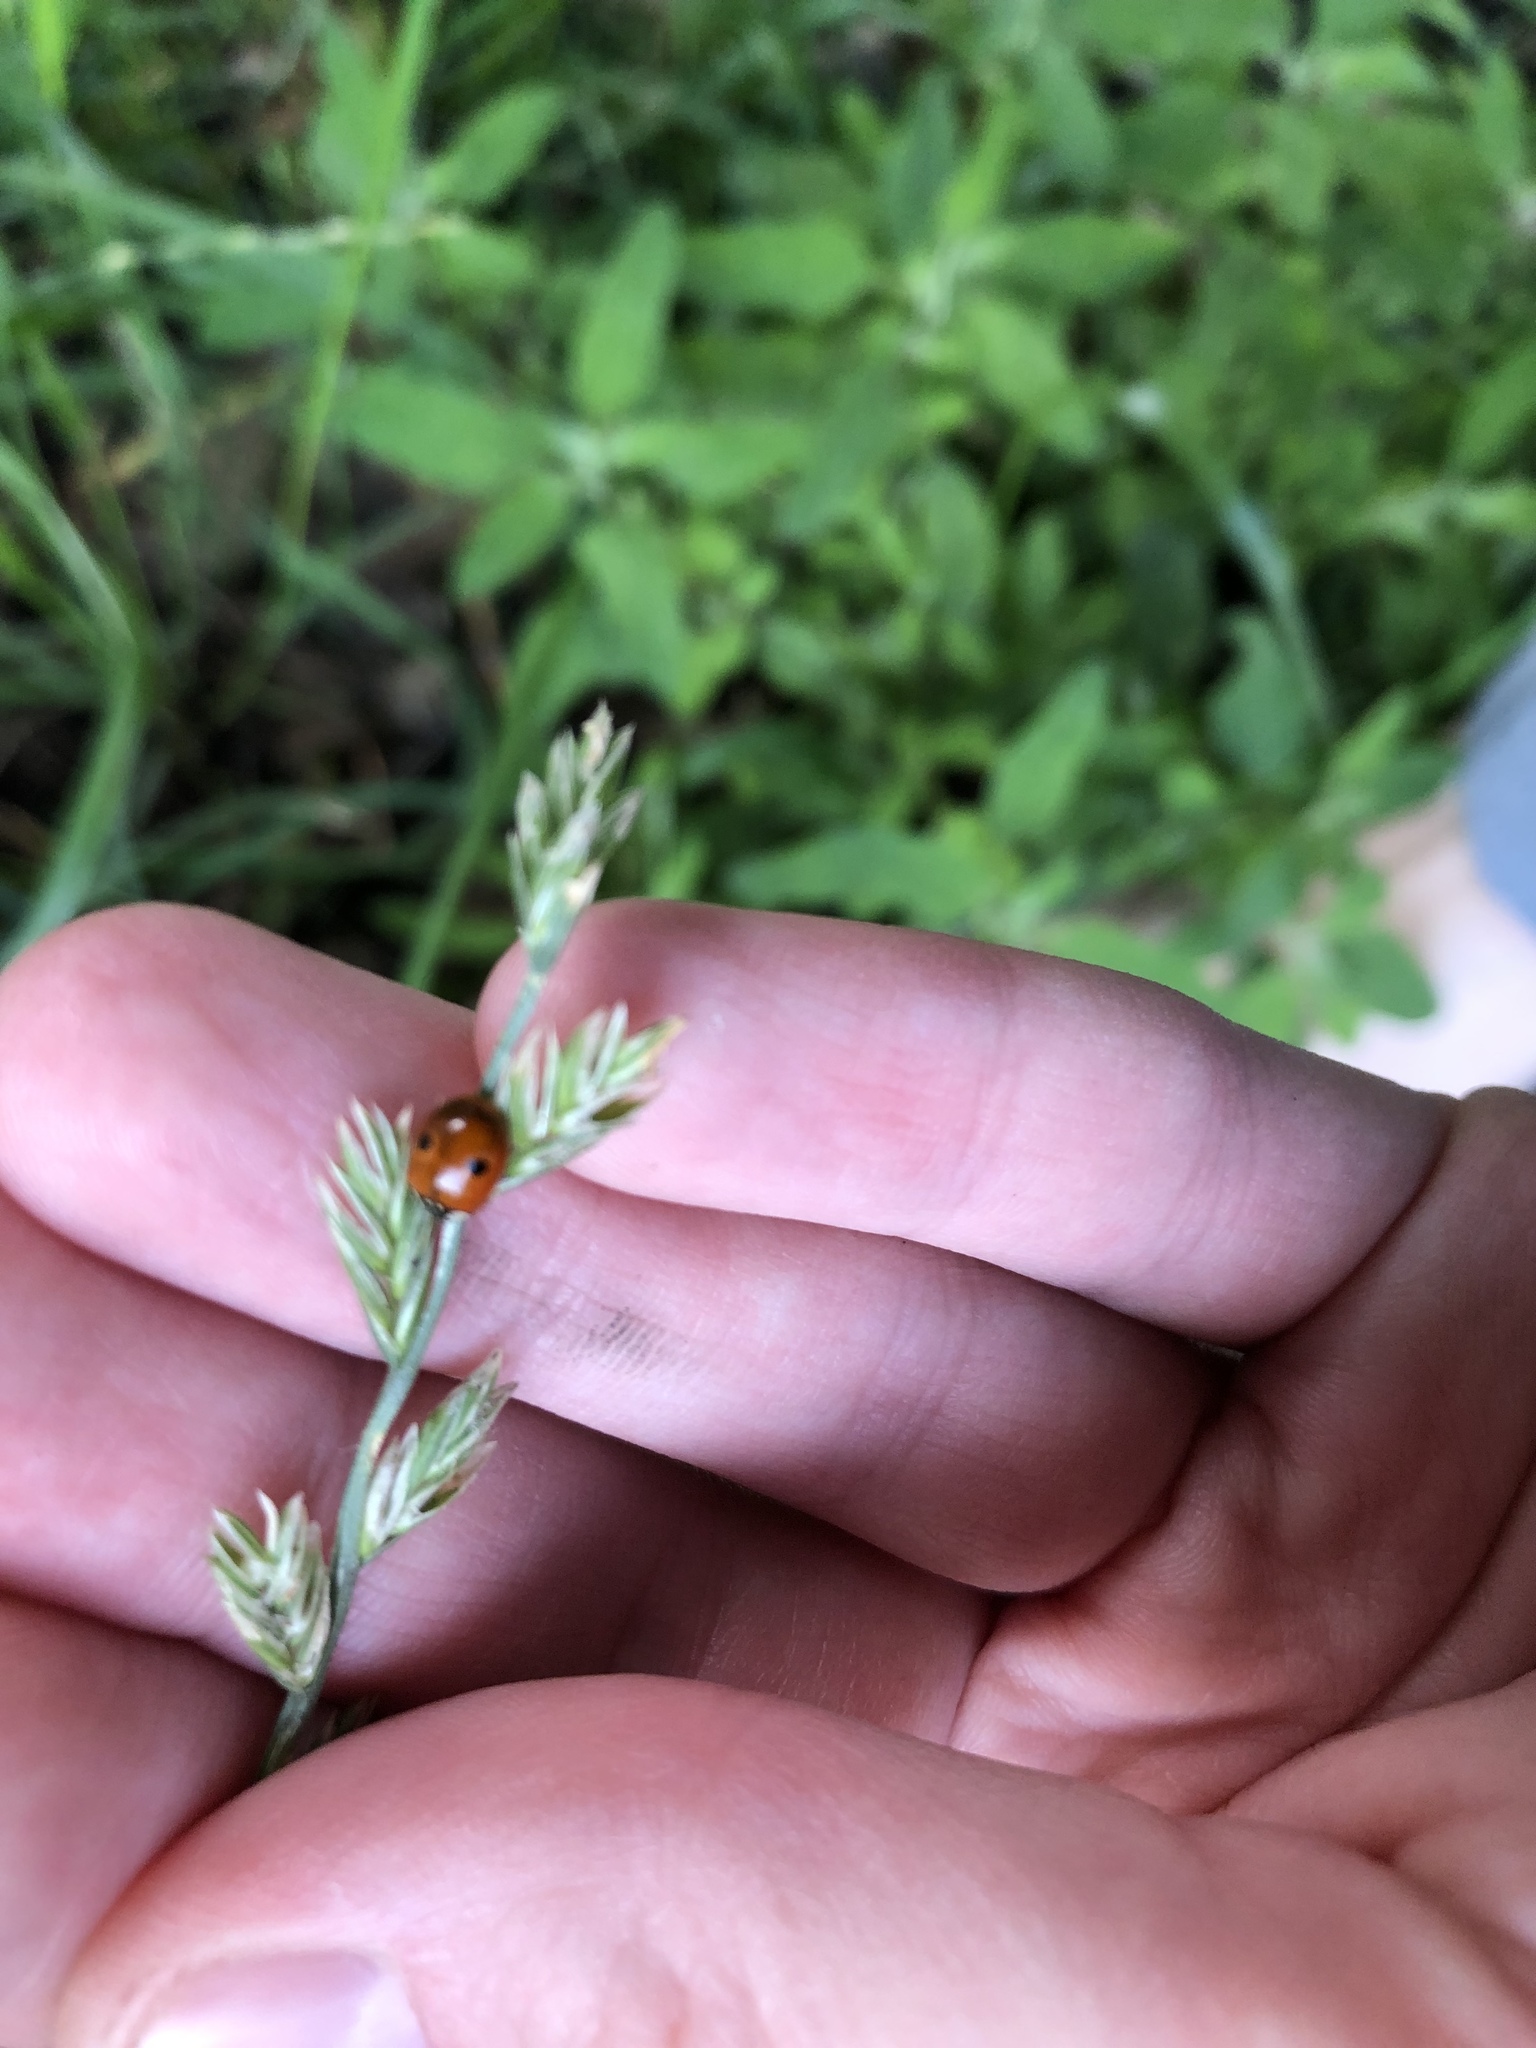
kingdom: Animalia
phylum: Arthropoda
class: Insecta
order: Coleoptera
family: Coccinellidae
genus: Adalia
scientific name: Adalia bipunctata
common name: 2-spot ladybird
